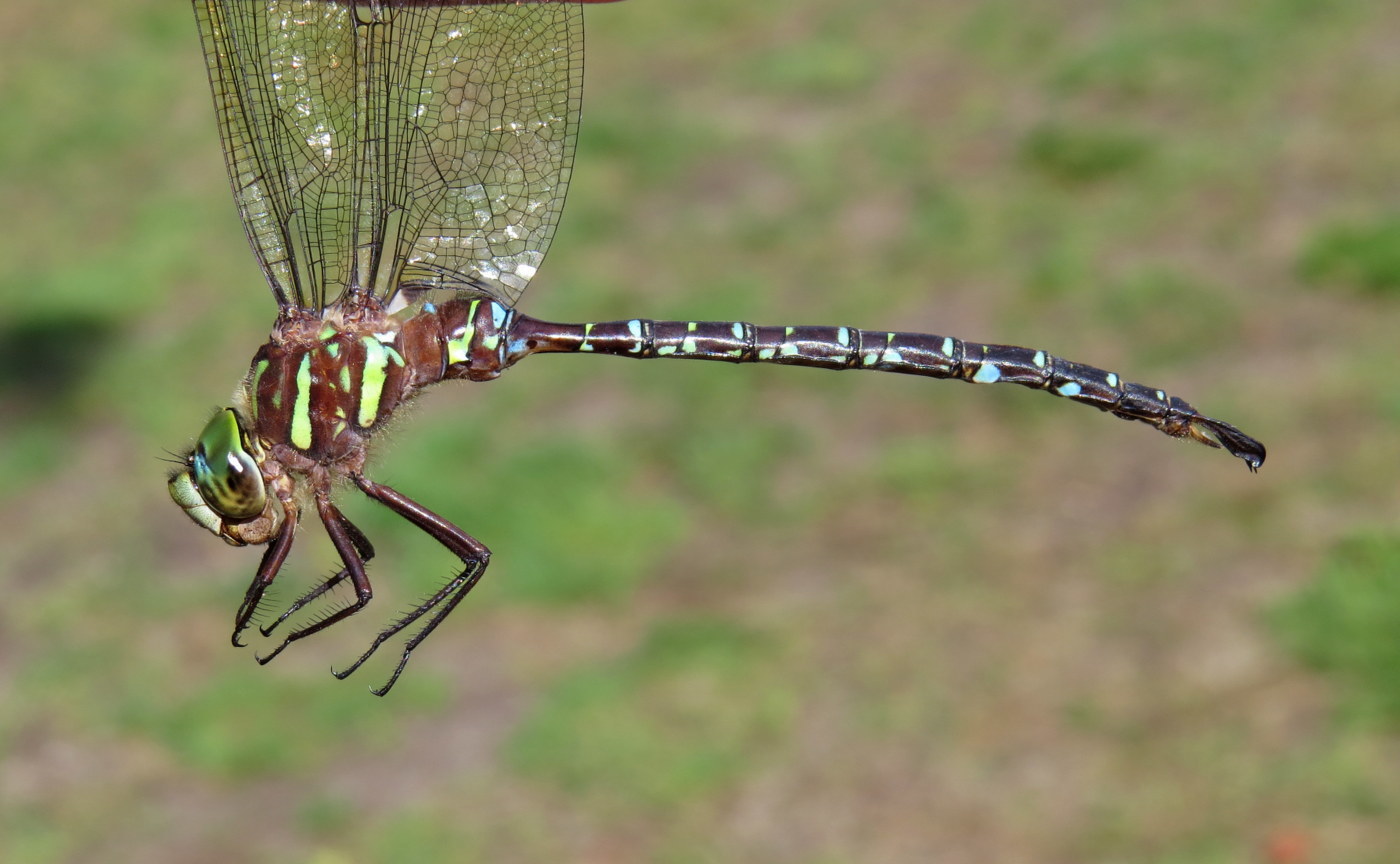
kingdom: Animalia
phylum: Arthropoda
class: Insecta
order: Odonata
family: Aeshnidae
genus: Aeshna
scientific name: Aeshna umbrosa
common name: Shadow darner
